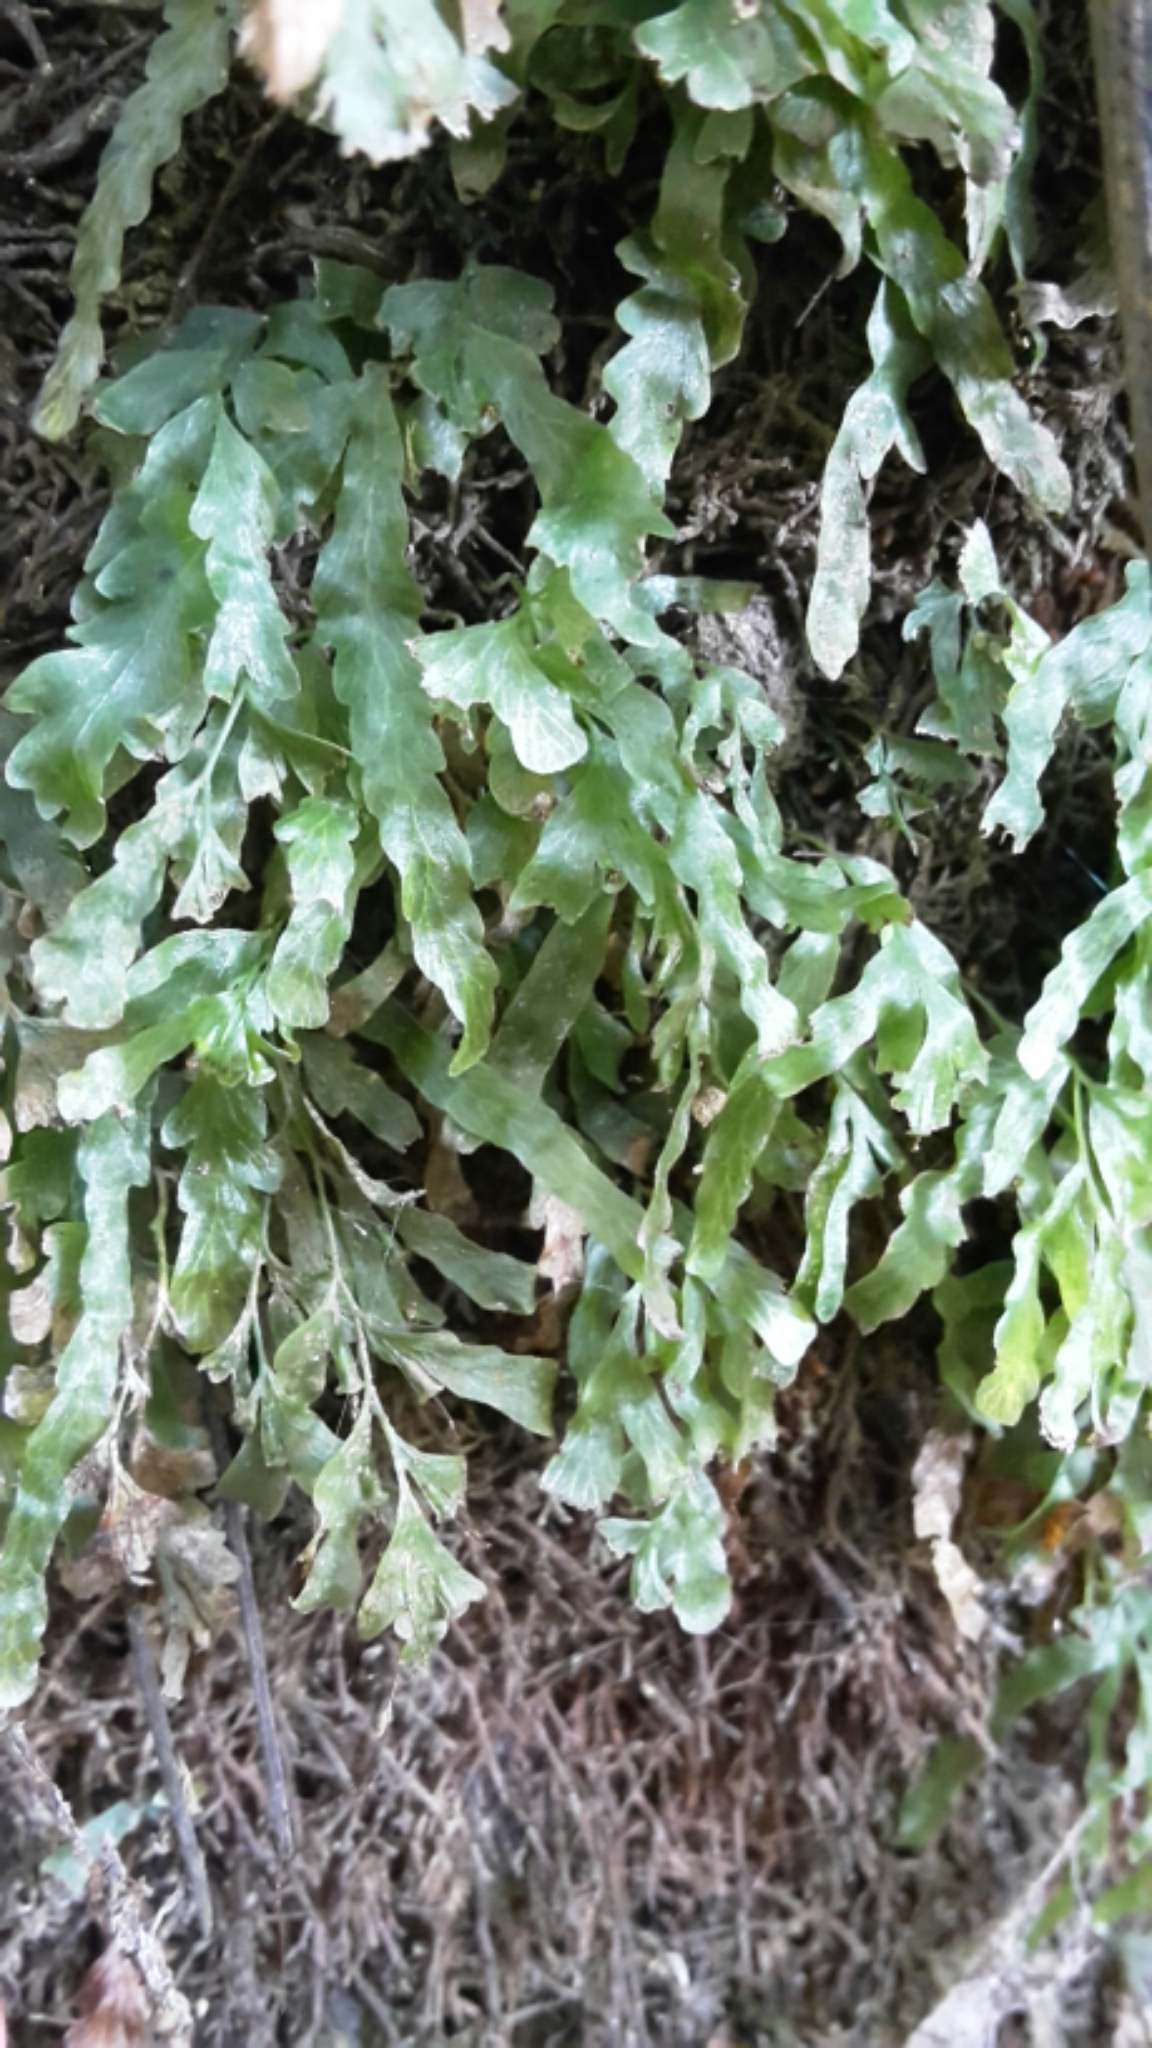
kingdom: Plantae
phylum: Tracheophyta
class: Polypodiopsida
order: Hymenophyllales
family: Hymenophyllaceae
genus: Polyphlebium
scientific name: Polyphlebium venosum
